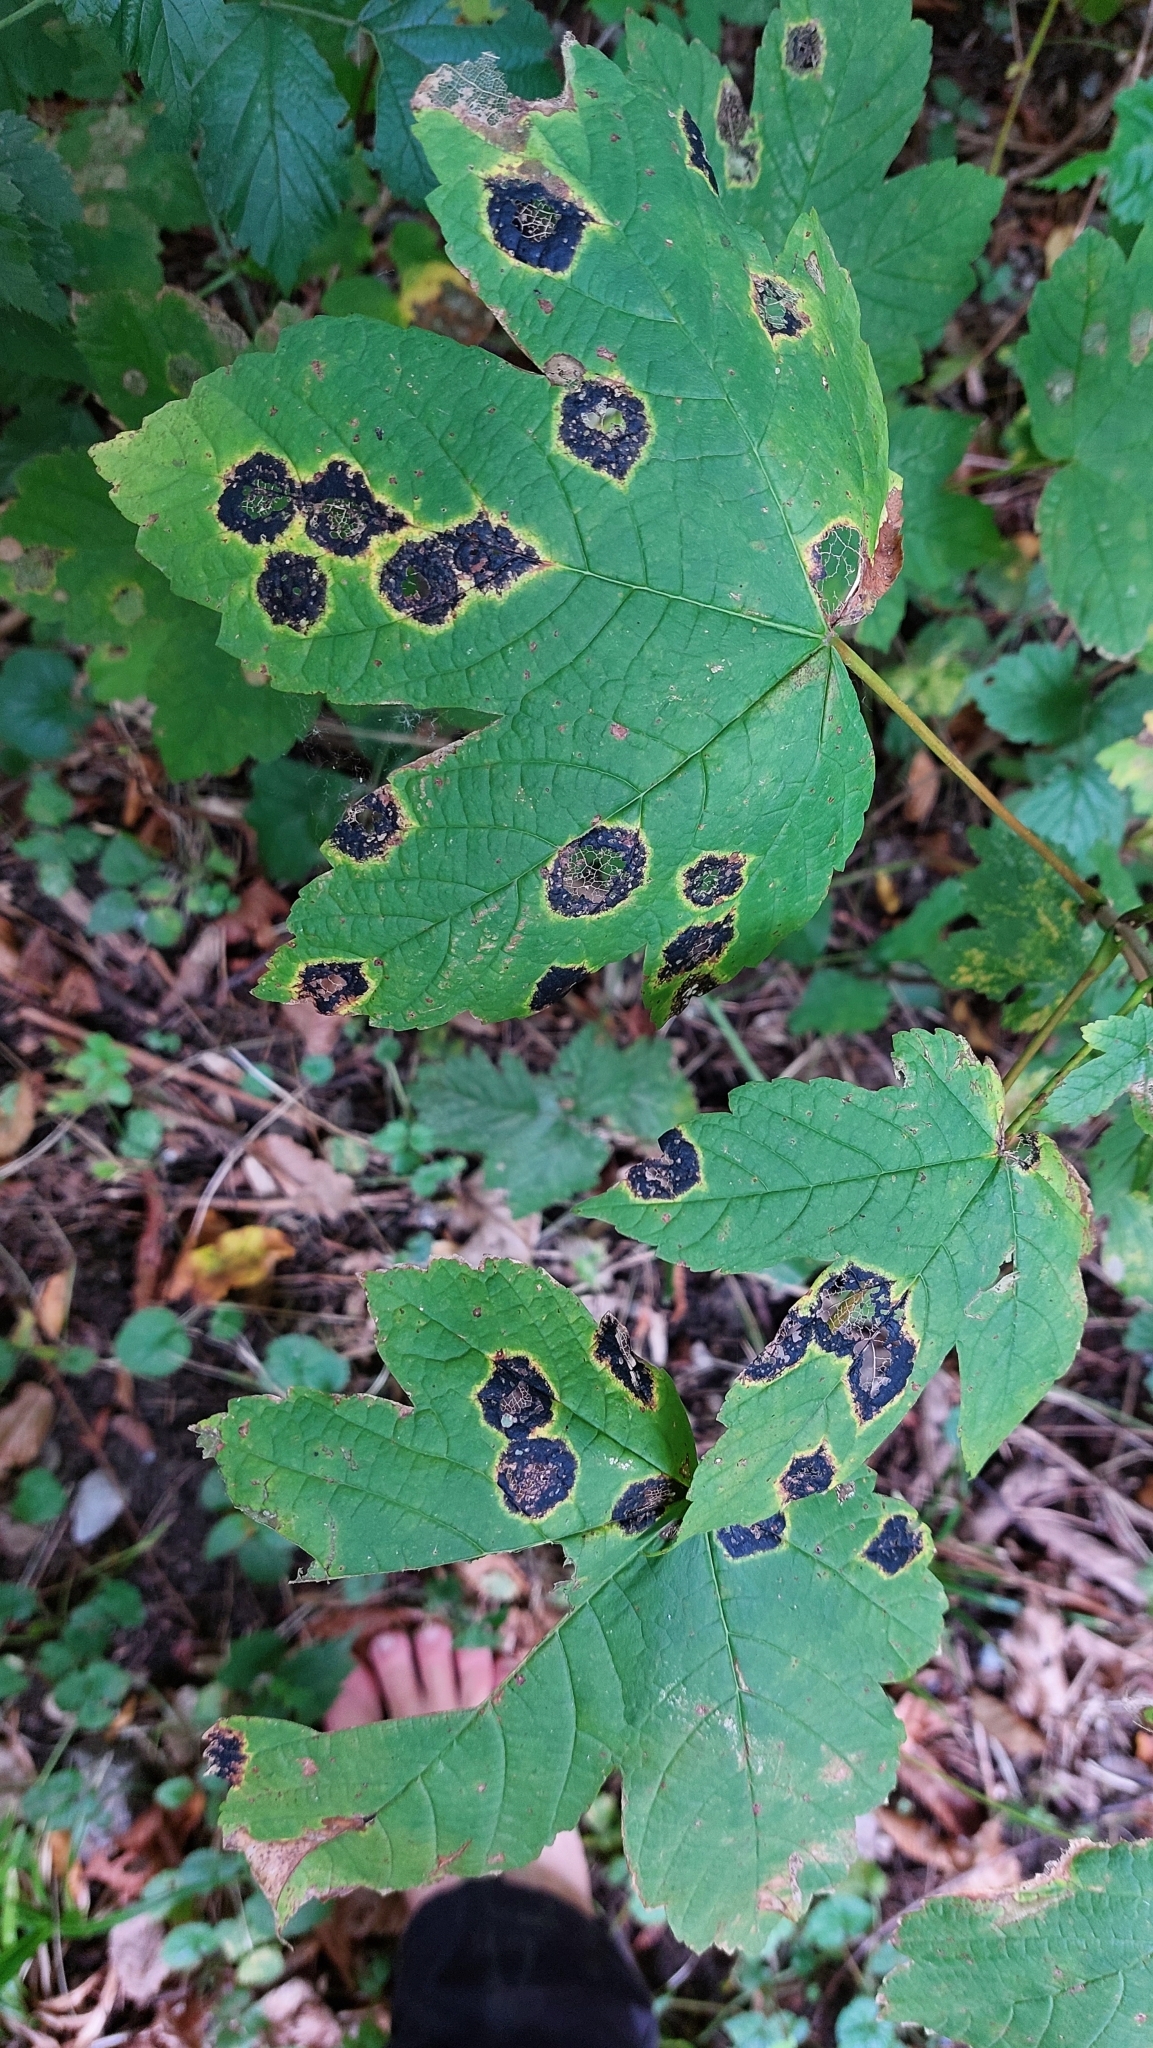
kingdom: Fungi
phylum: Ascomycota
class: Leotiomycetes
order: Rhytismatales
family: Rhytismataceae
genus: Rhytisma
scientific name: Rhytisma acerinum
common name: European tar spot
